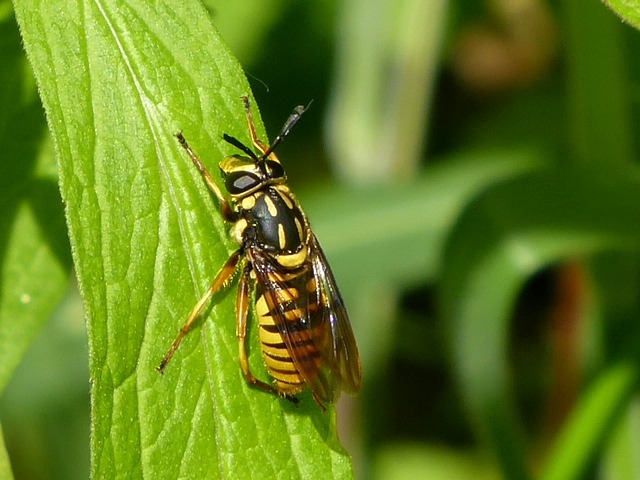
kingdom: Animalia
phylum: Arthropoda
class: Insecta
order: Diptera
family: Syrphidae
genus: Sphecomyia
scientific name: Sphecomyia vittata
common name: Long-horned yellowjacket fly
